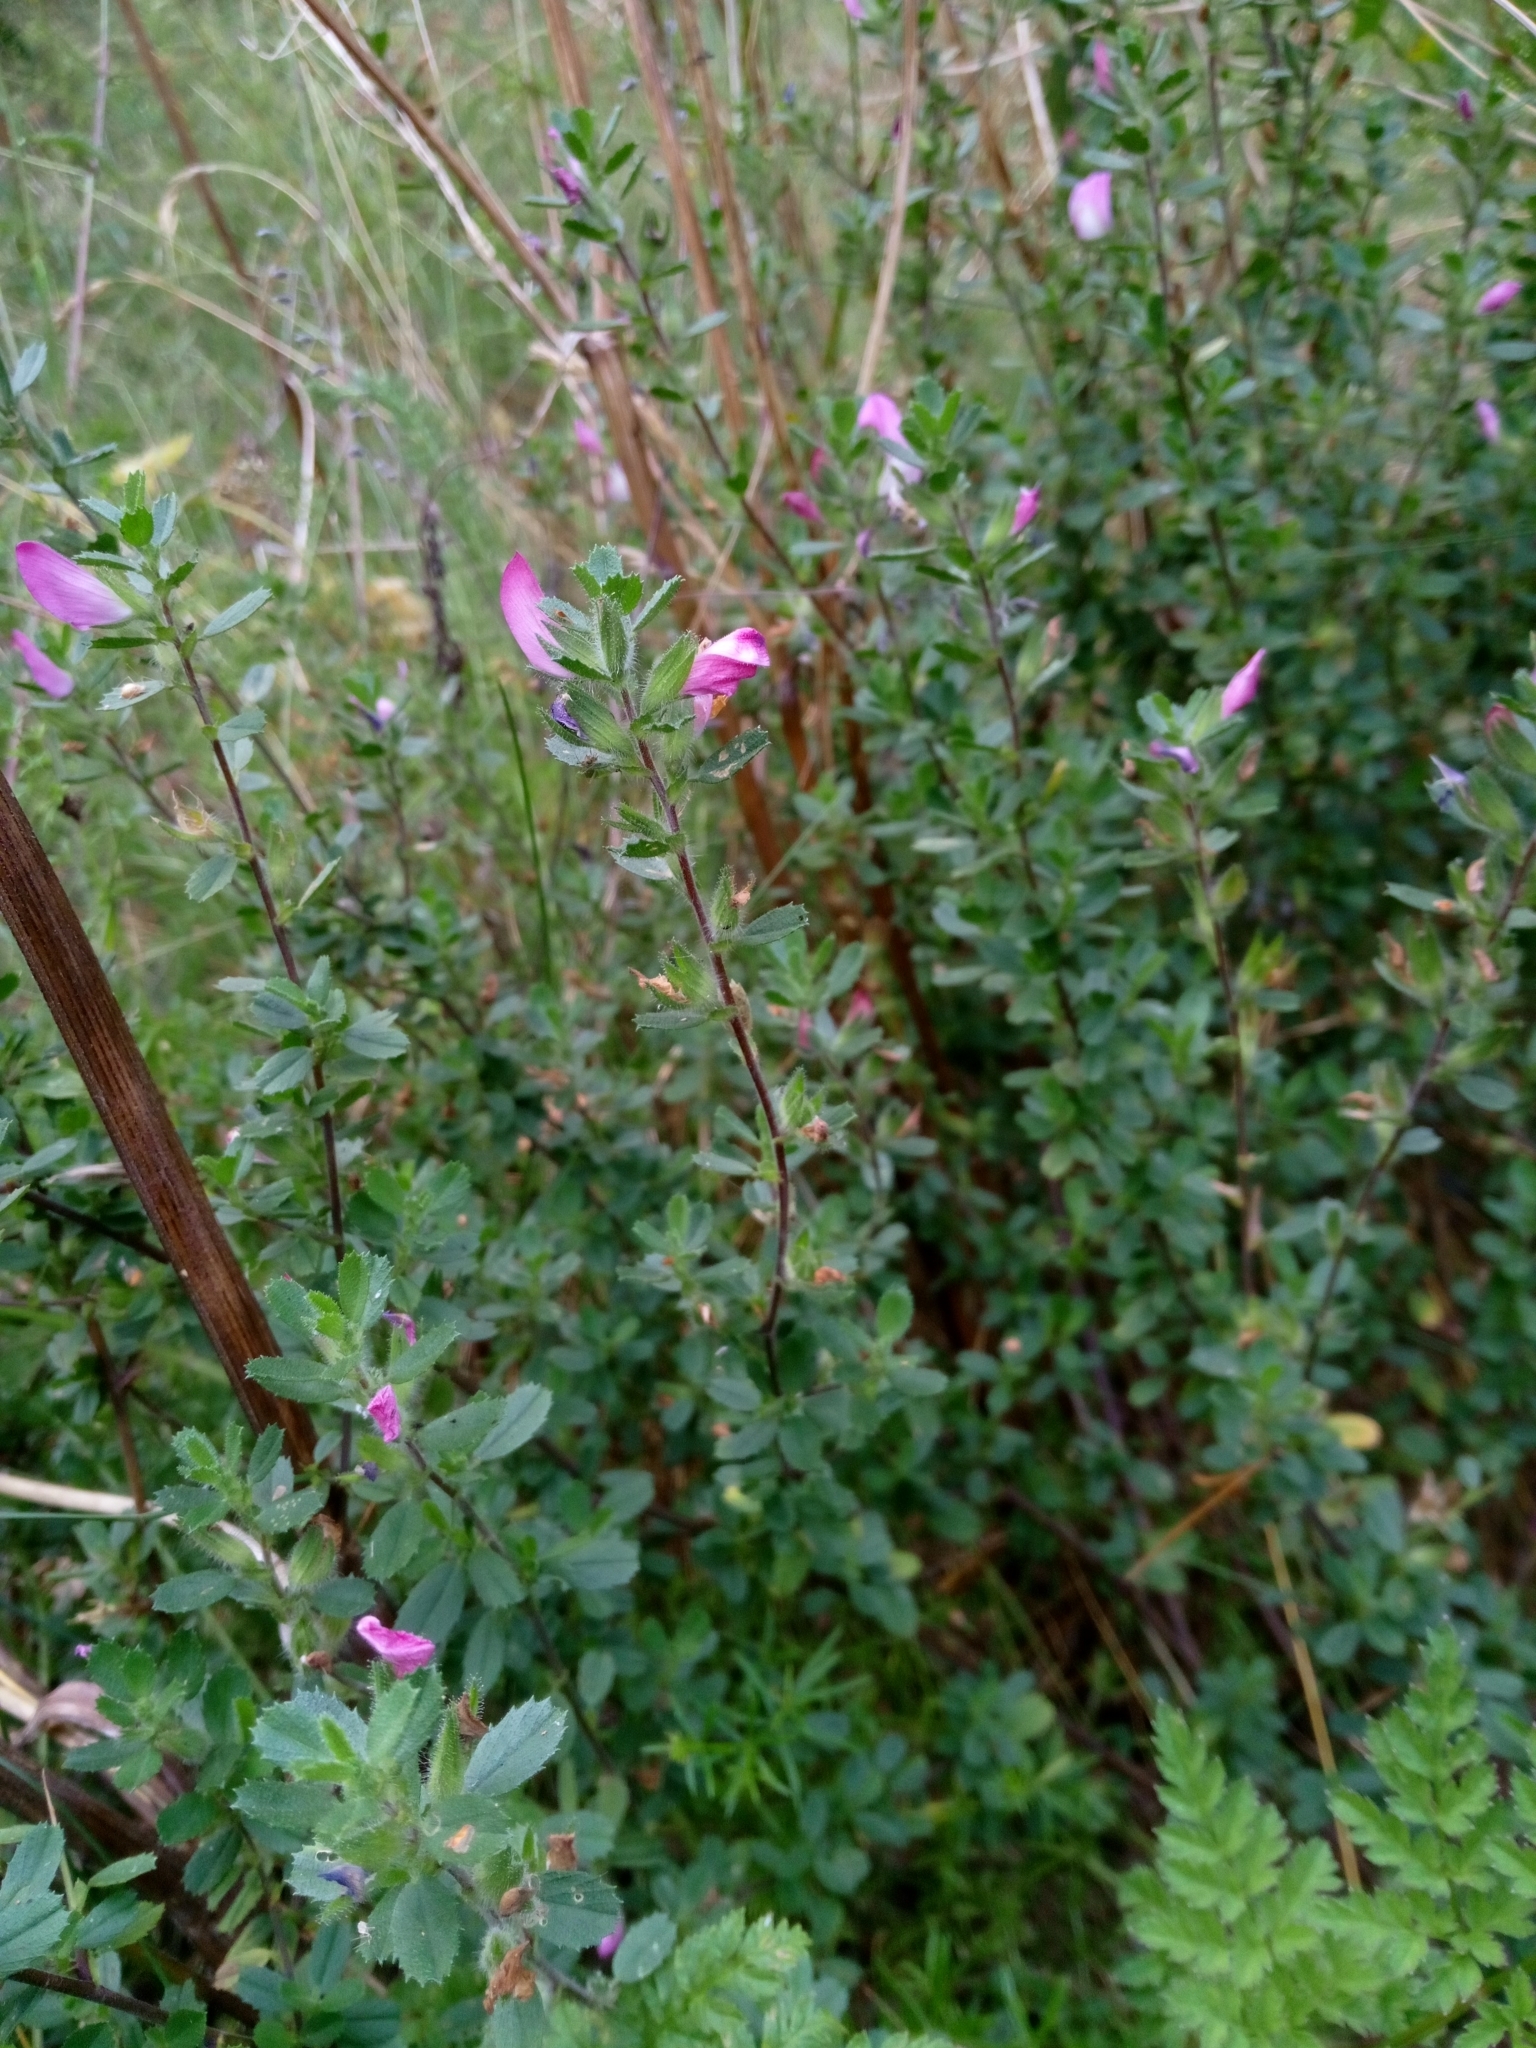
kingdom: Plantae
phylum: Tracheophyta
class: Magnoliopsida
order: Fabales
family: Fabaceae
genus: Ononis
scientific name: Ononis arvensis
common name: Field restharrow
